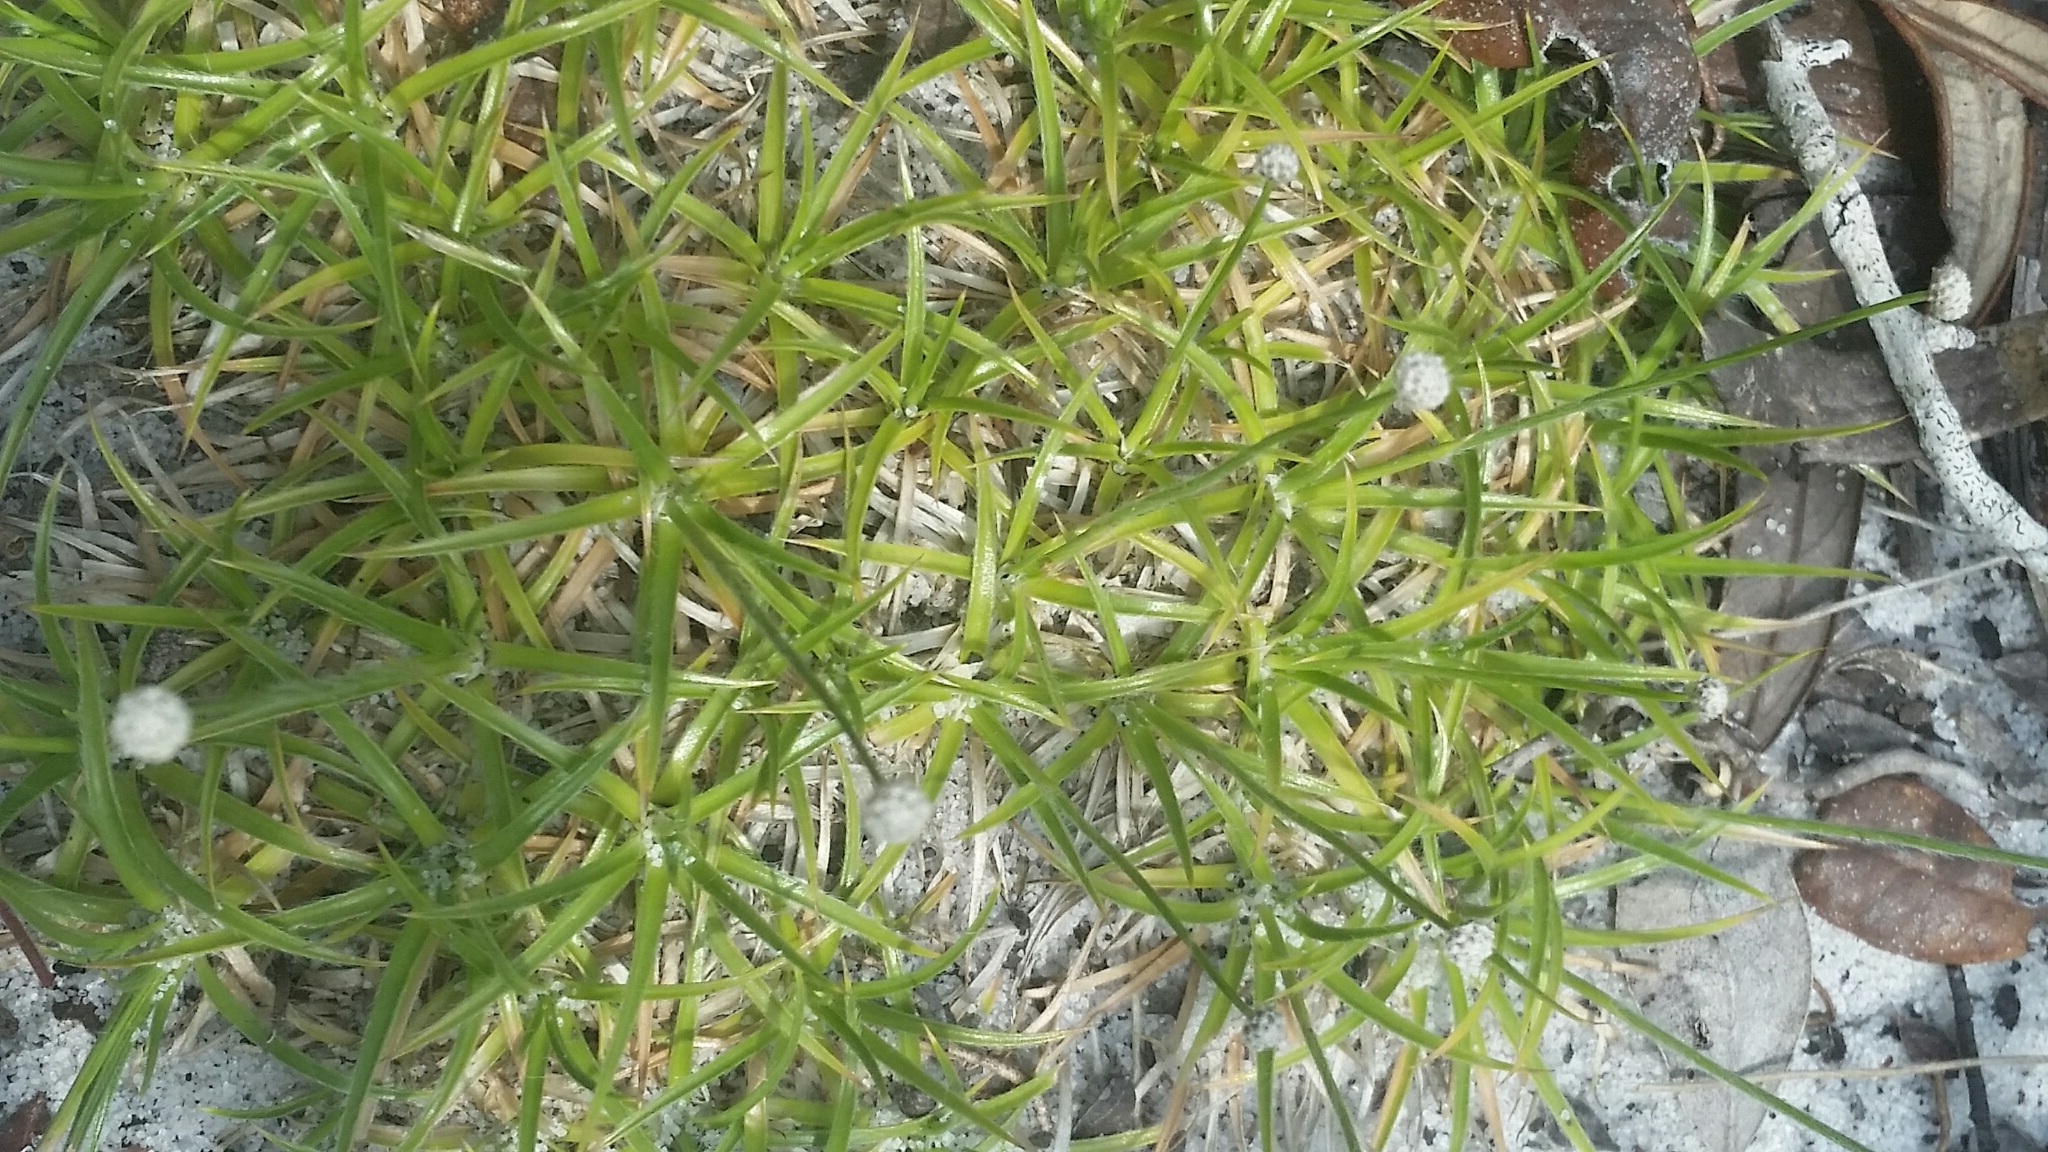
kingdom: Plantae
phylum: Tracheophyta
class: Liliopsida
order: Poales
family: Eriocaulaceae
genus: Paepalanthus
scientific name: Paepalanthus beyrichianus
